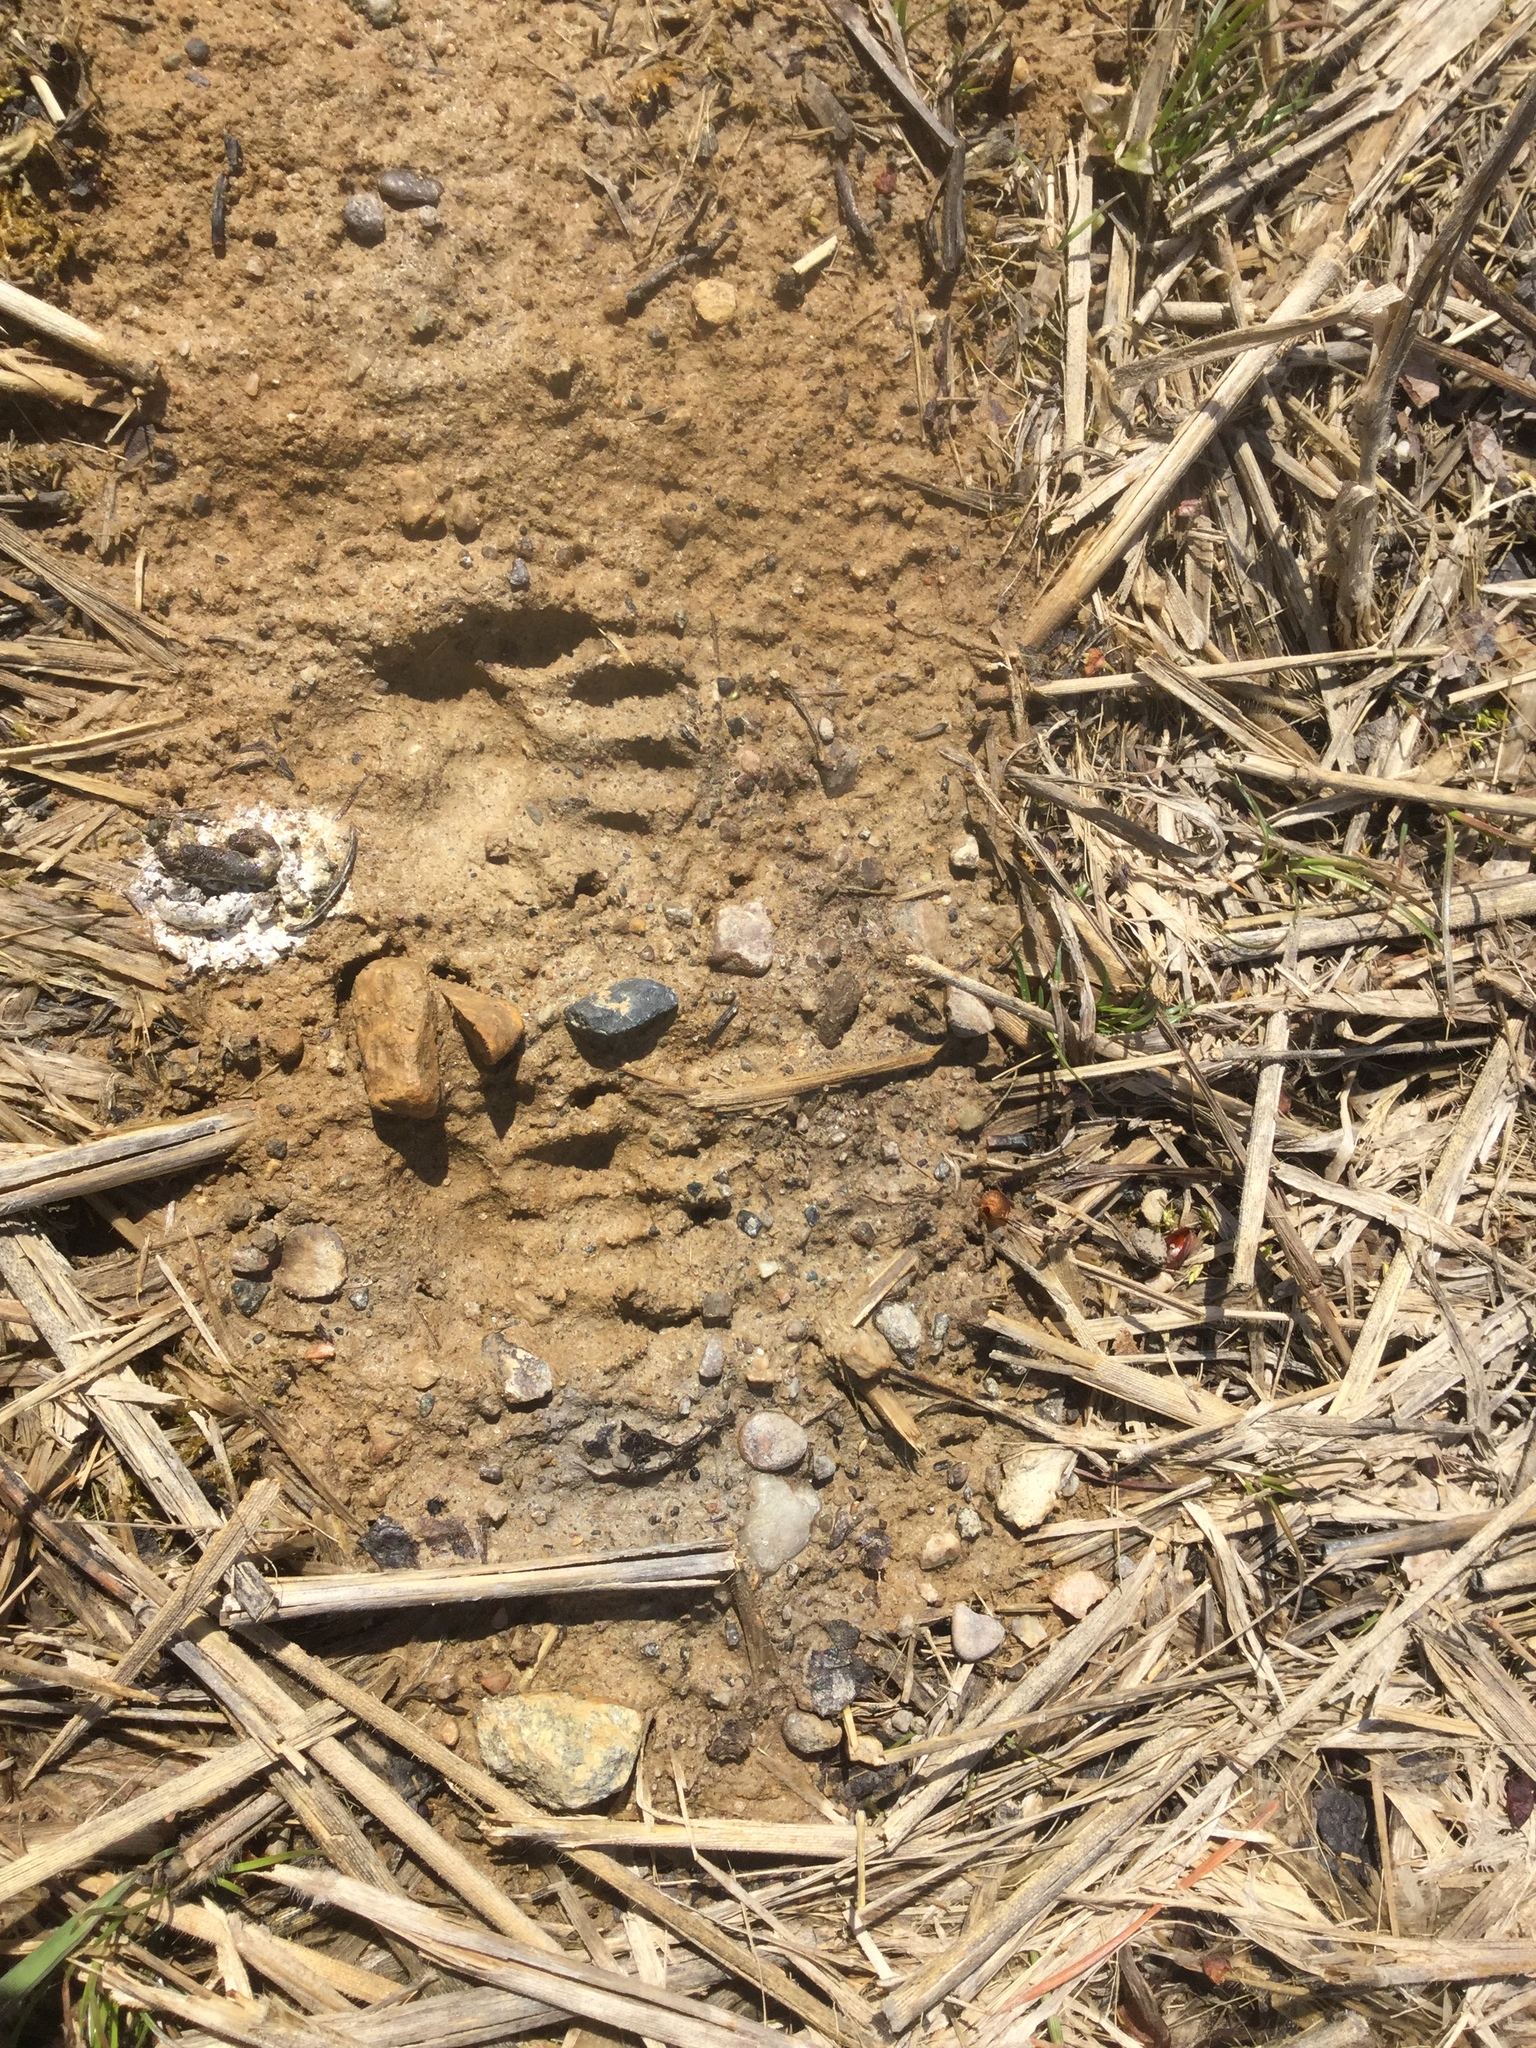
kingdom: Animalia
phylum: Chordata
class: Mammalia
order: Carnivora
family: Procyonidae
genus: Procyon
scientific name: Procyon lotor
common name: Raccoon
